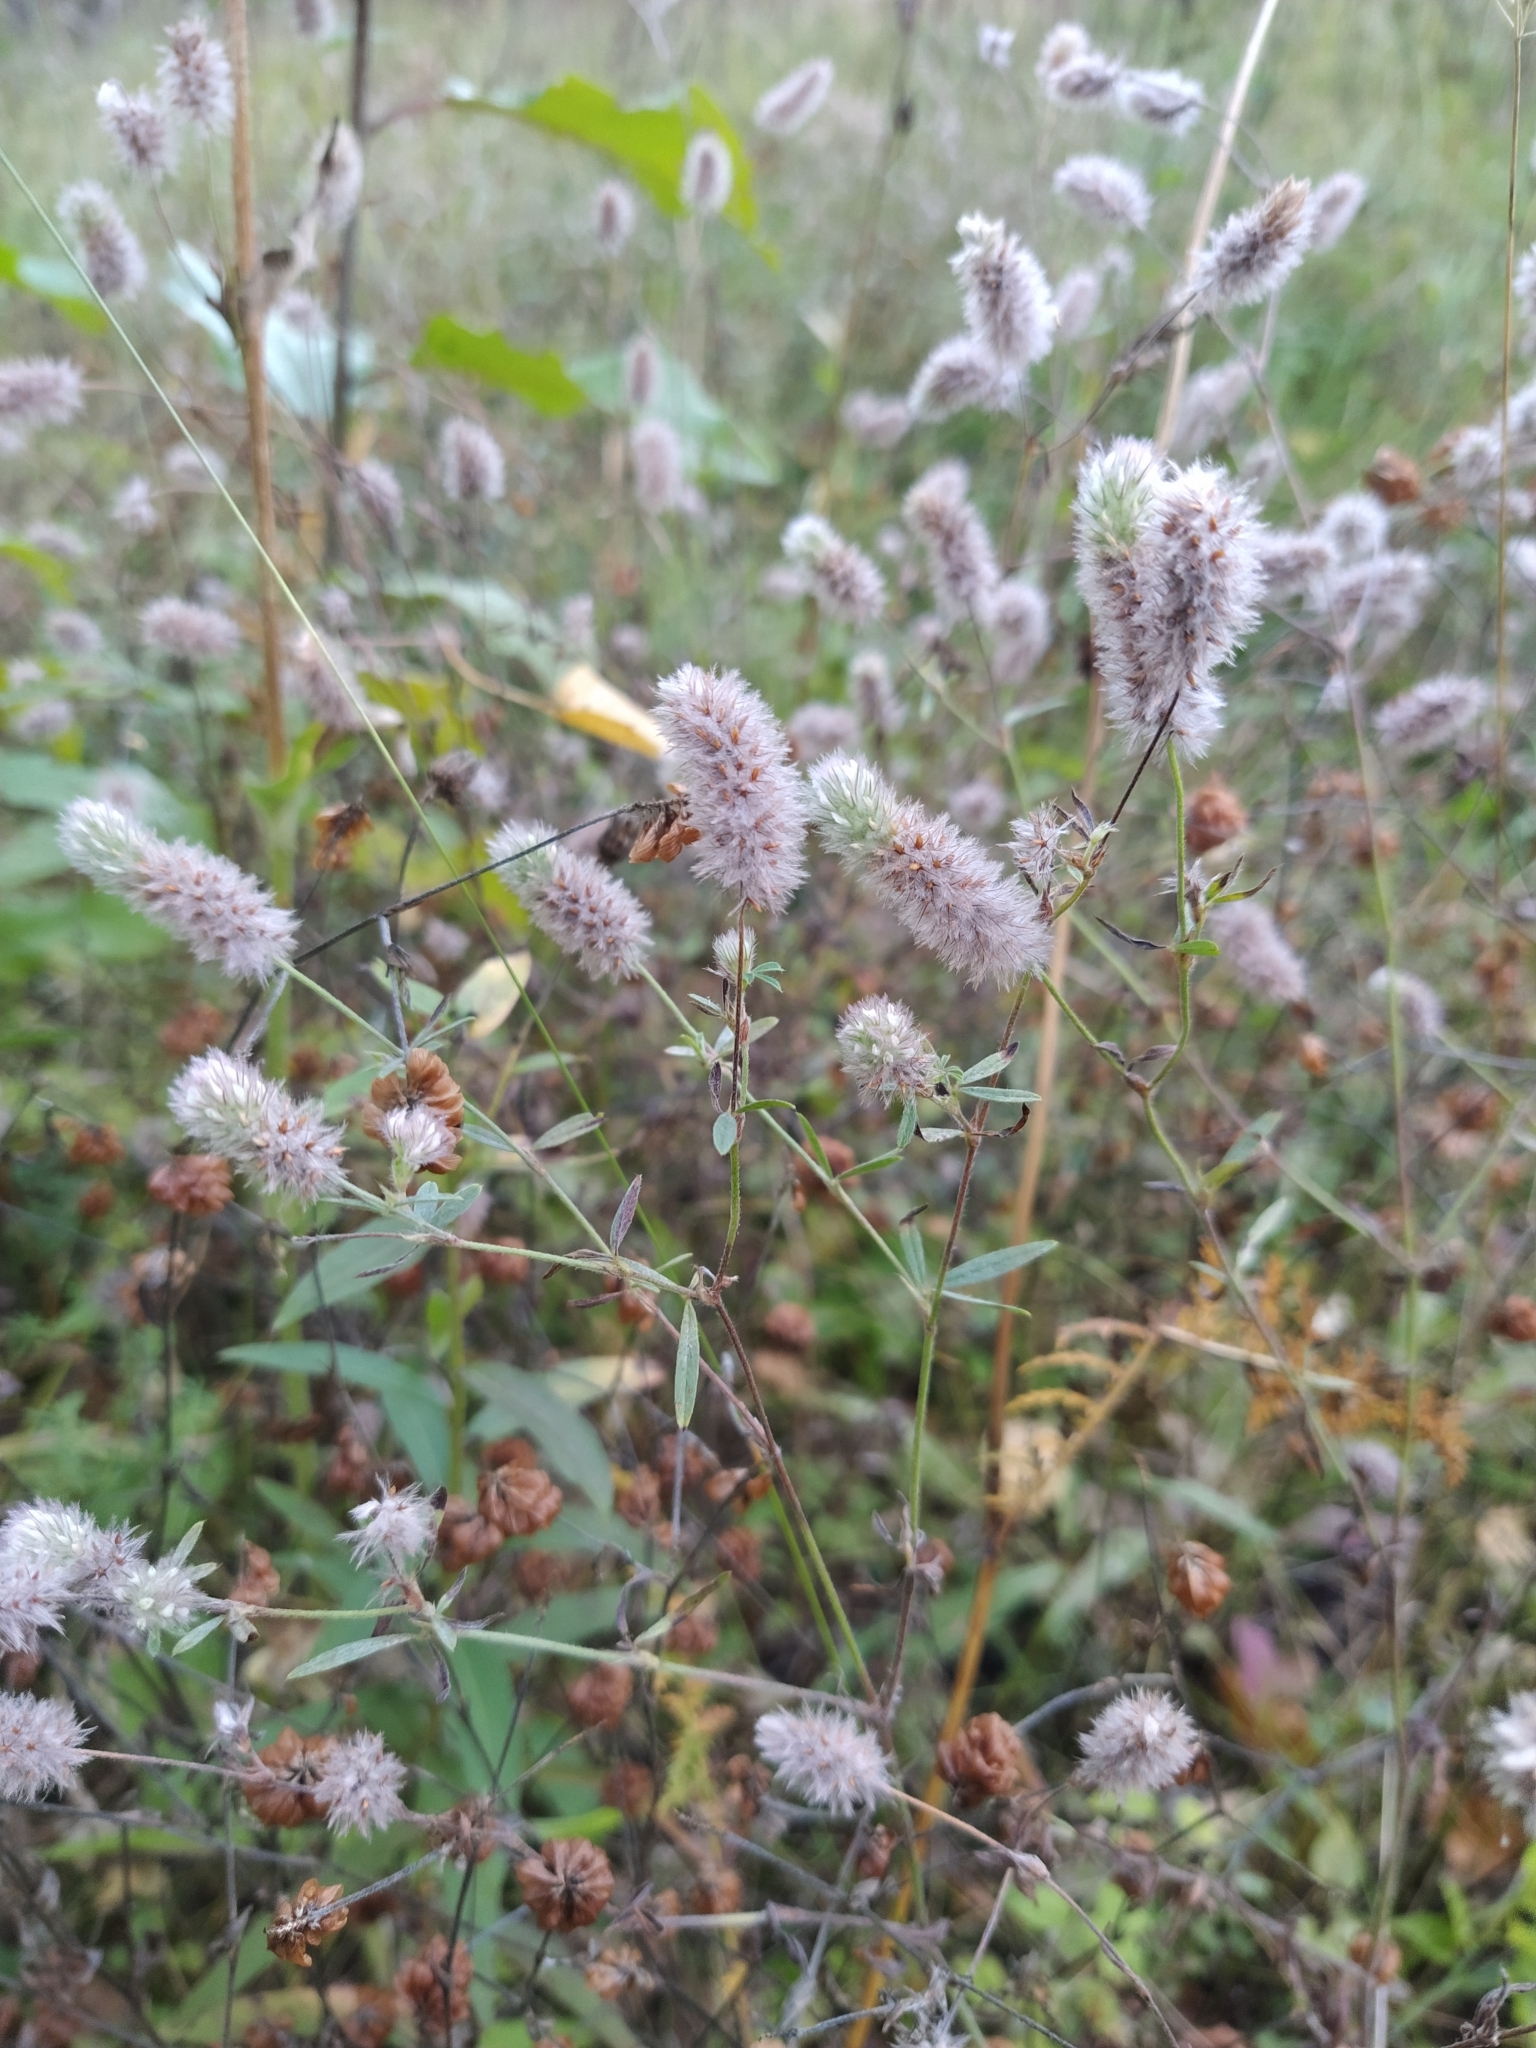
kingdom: Plantae
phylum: Tracheophyta
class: Magnoliopsida
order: Fabales
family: Fabaceae
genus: Trifolium
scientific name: Trifolium arvense
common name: Hare's-foot clover
